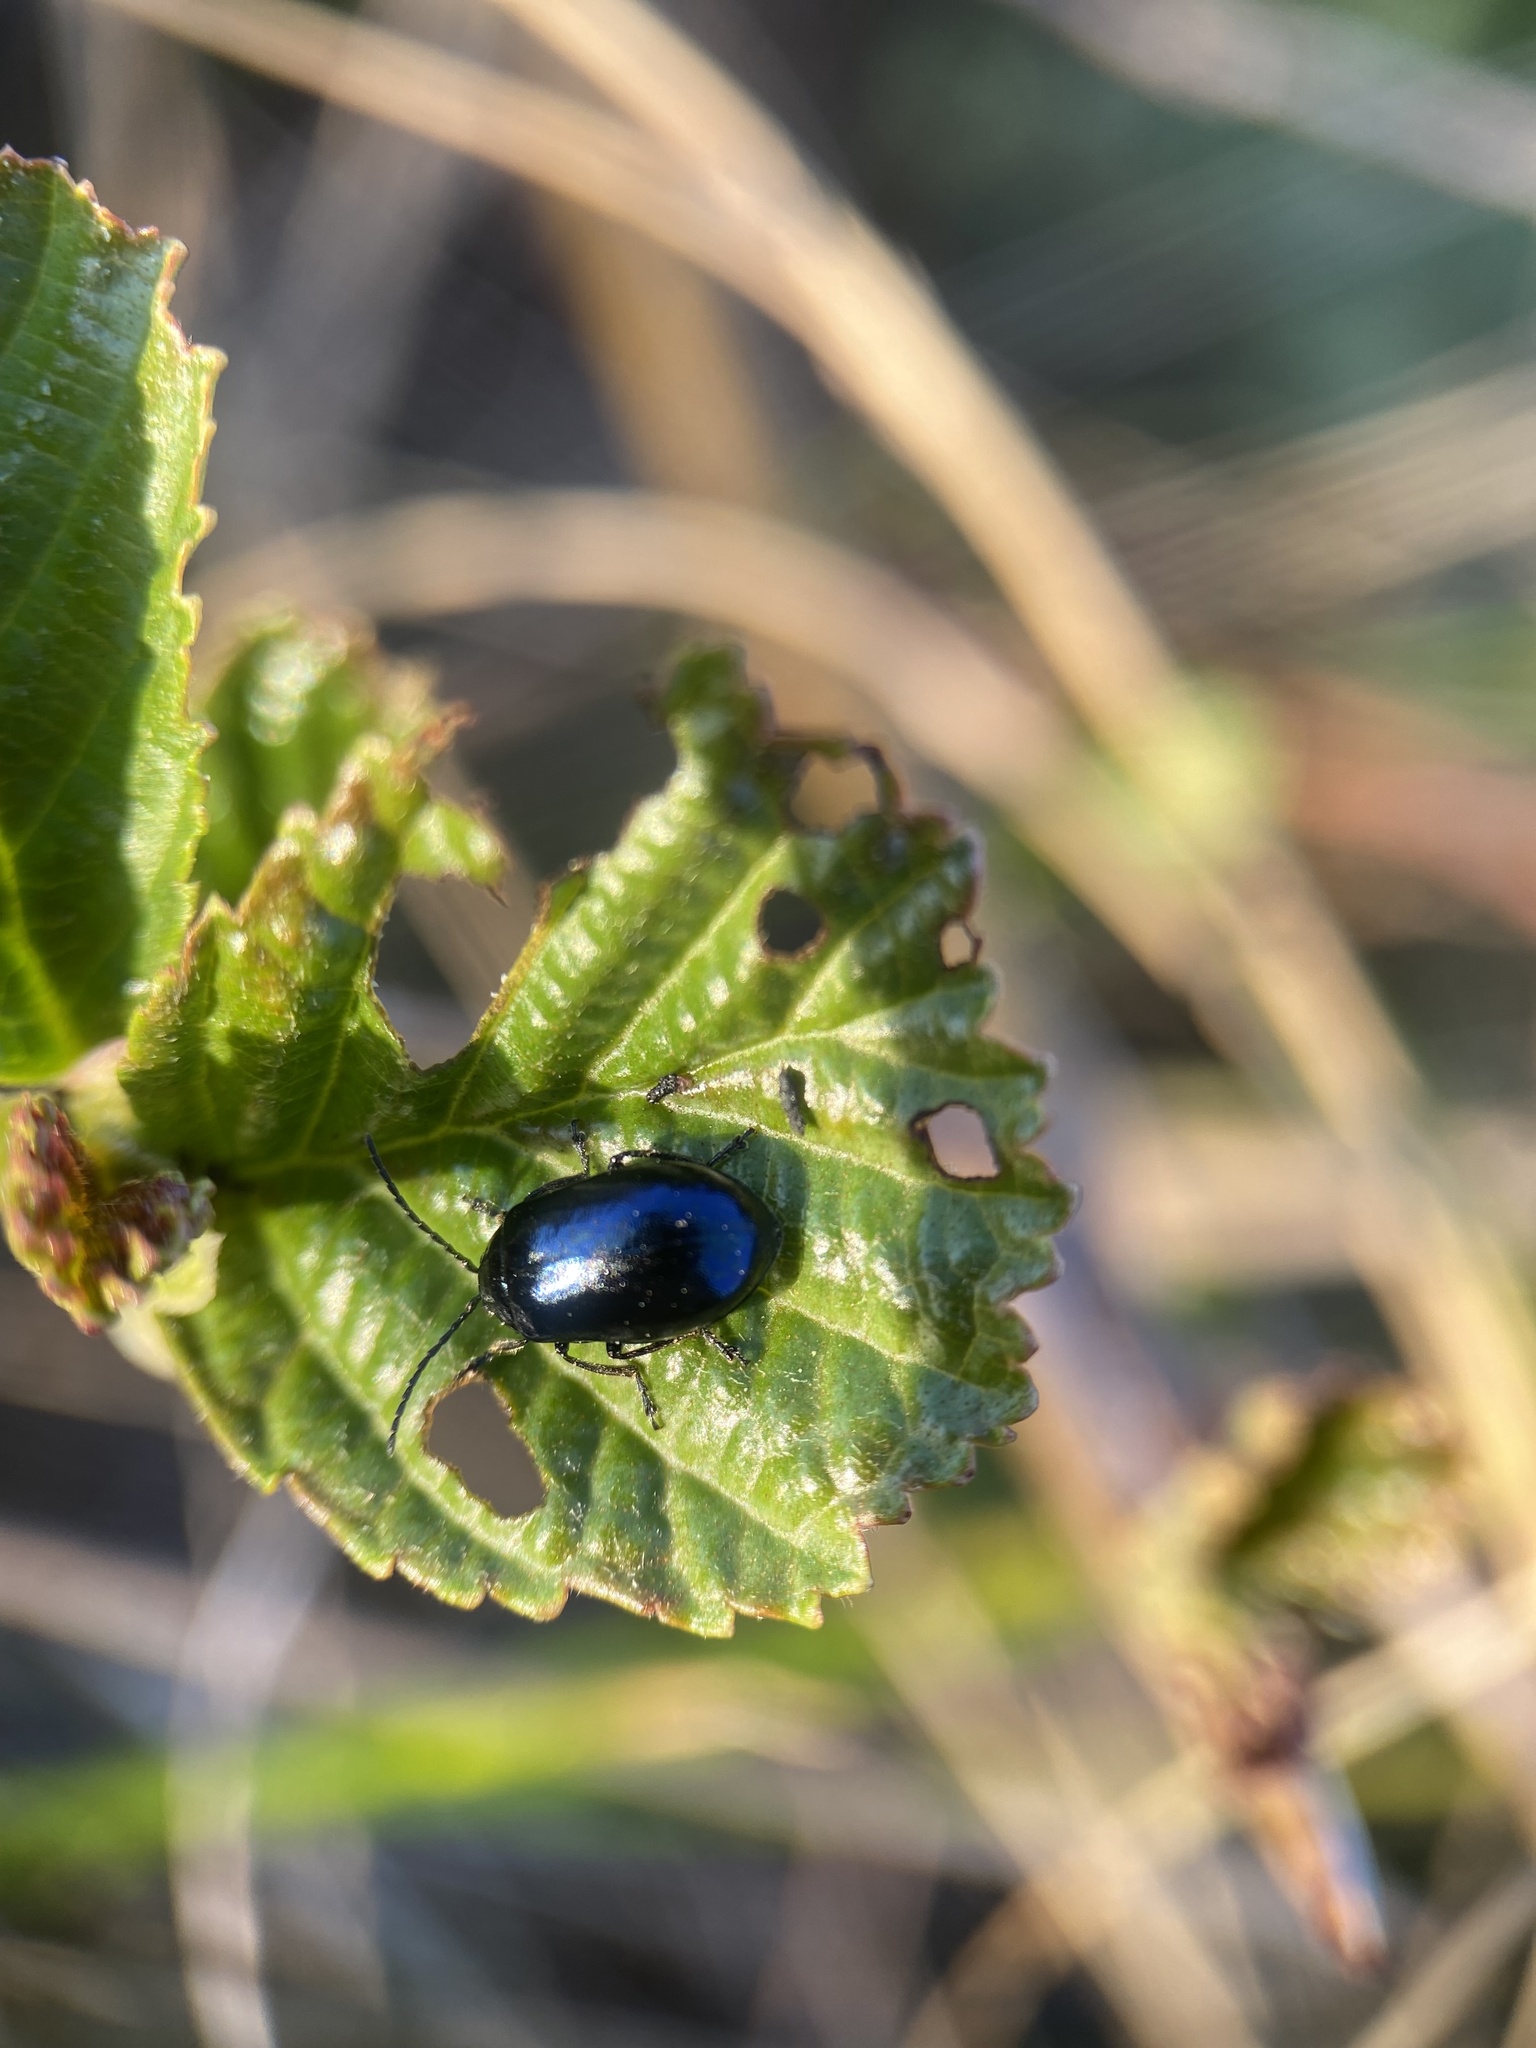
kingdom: Animalia
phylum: Arthropoda
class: Insecta
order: Coleoptera
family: Chrysomelidae
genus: Agelastica
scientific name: Agelastica alni
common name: Alder leaf beetle
